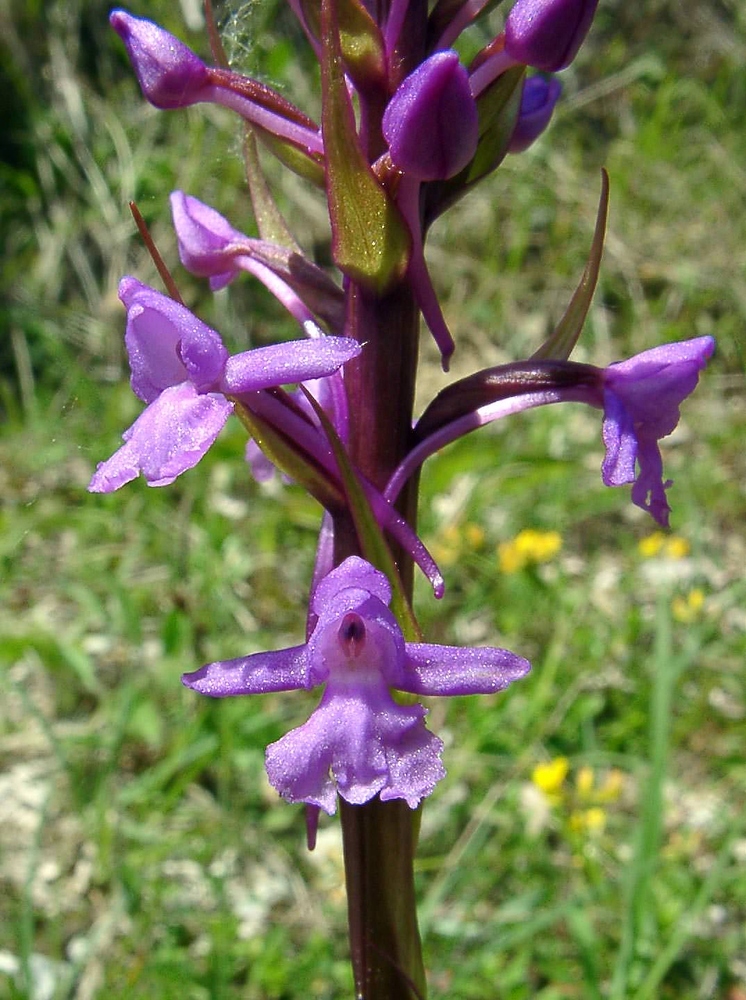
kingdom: Plantae
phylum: Tracheophyta
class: Liliopsida
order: Asparagales
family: Orchidaceae
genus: Gymnadenia
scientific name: Gymnadenia conopsea
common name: Fragrant orchid
